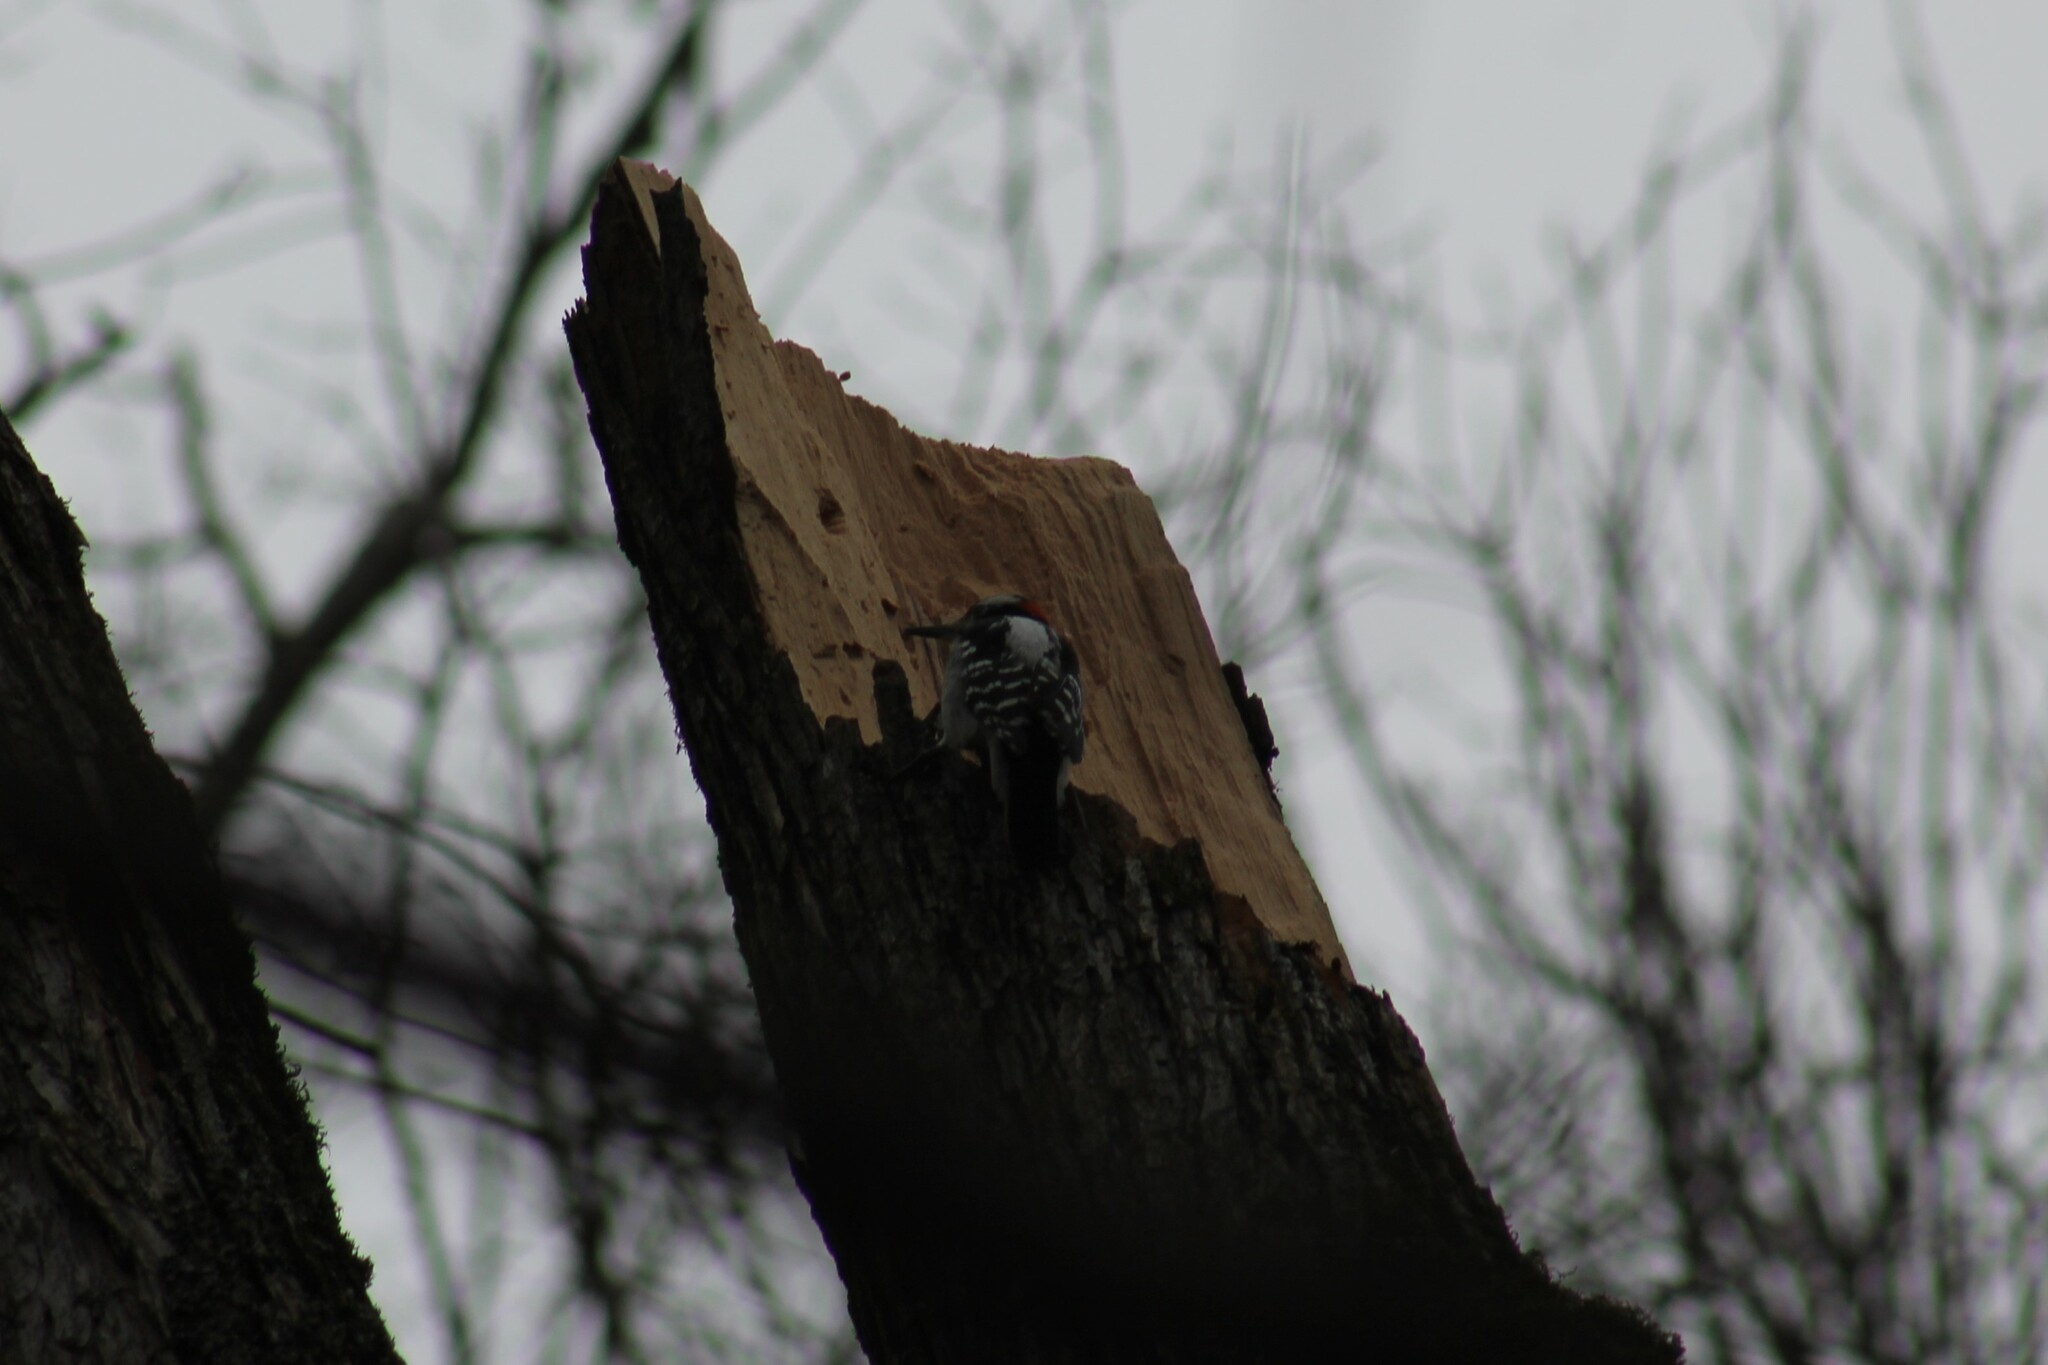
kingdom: Animalia
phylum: Chordata
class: Aves
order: Piciformes
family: Picidae
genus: Leuconotopicus
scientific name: Leuconotopicus villosus
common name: Hairy woodpecker
